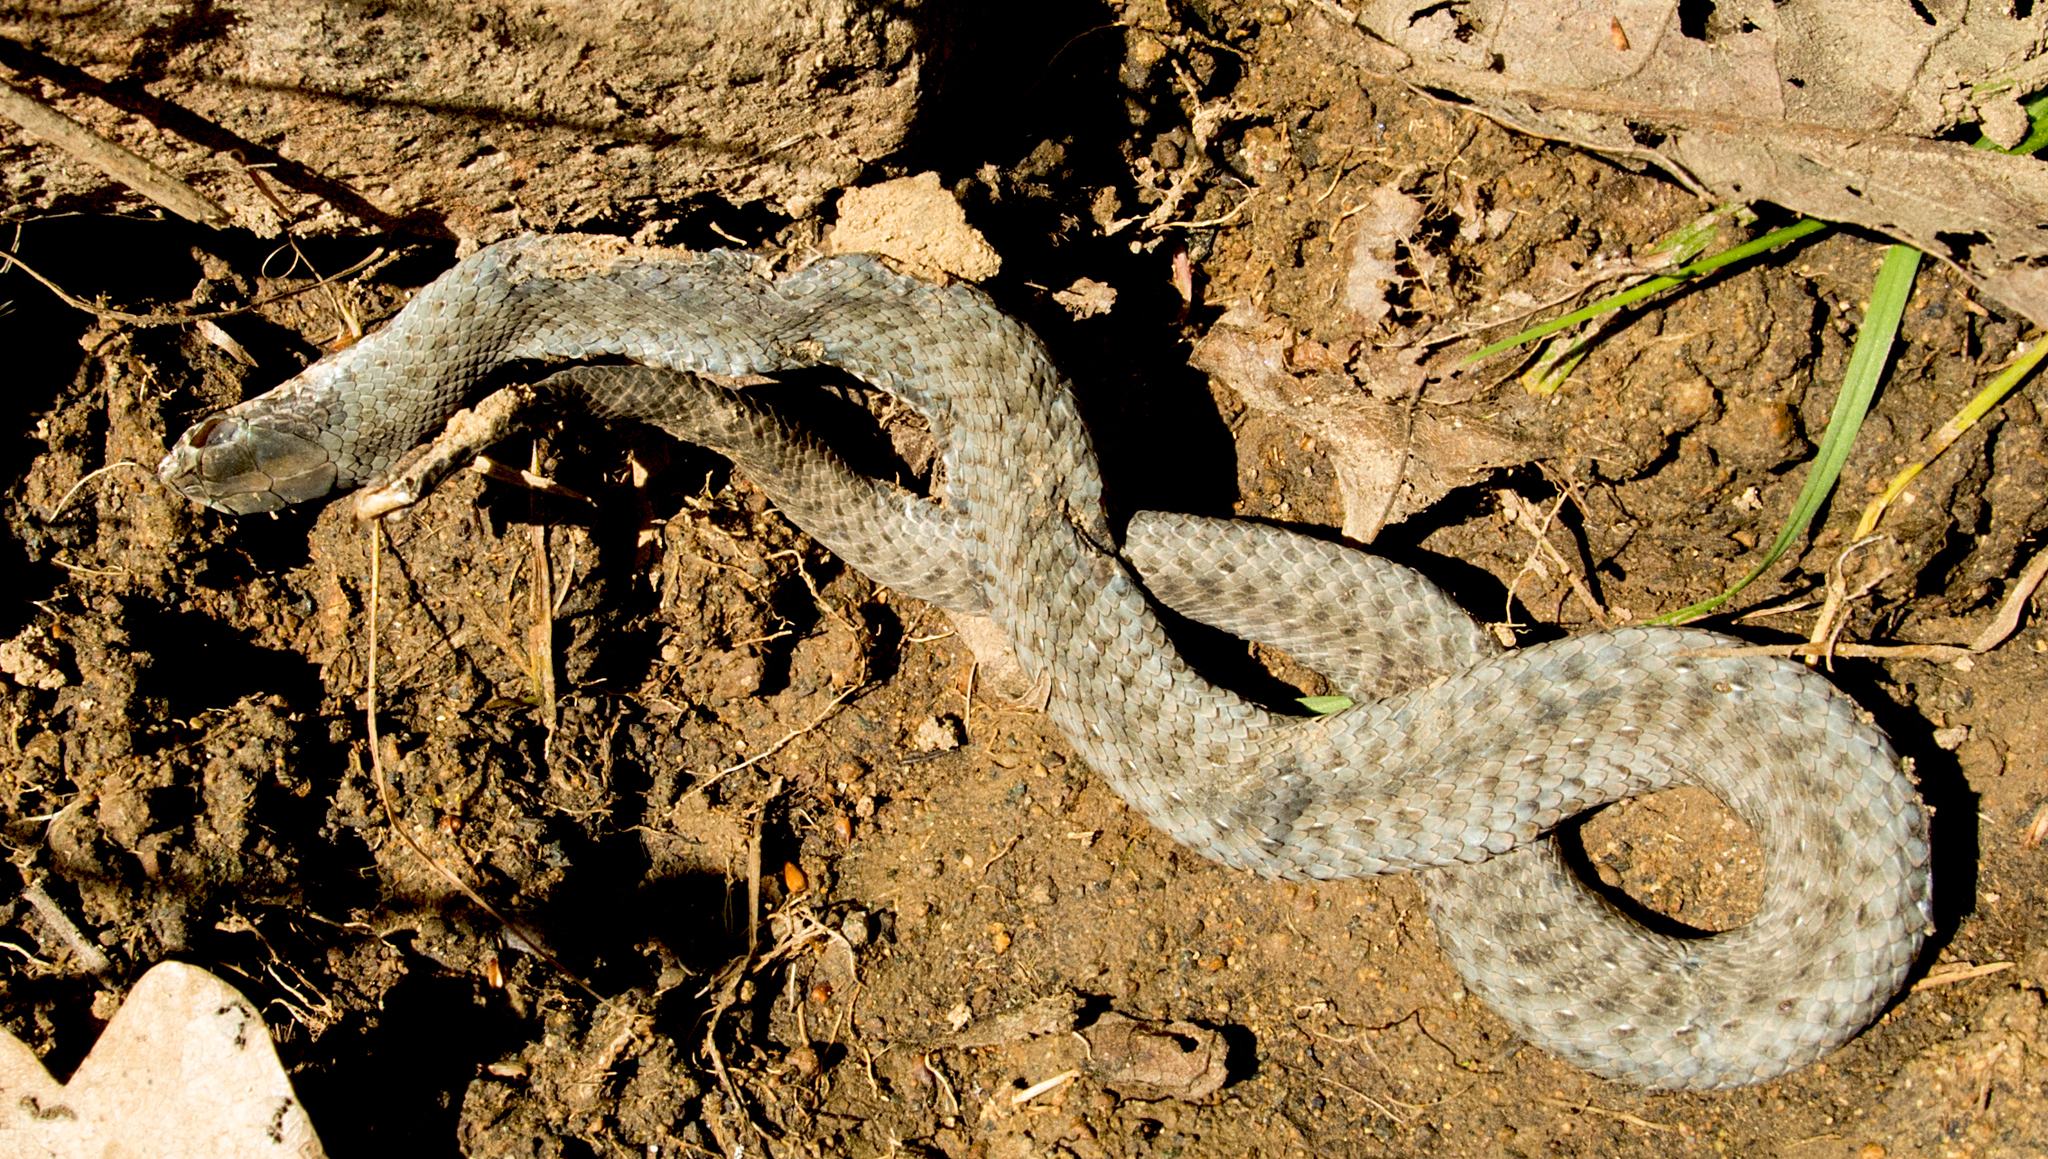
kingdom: Animalia
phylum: Chordata
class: Squamata
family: Psammophiidae
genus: Malpolon
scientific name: Malpolon insignitus
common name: Eastern montpellier snake
